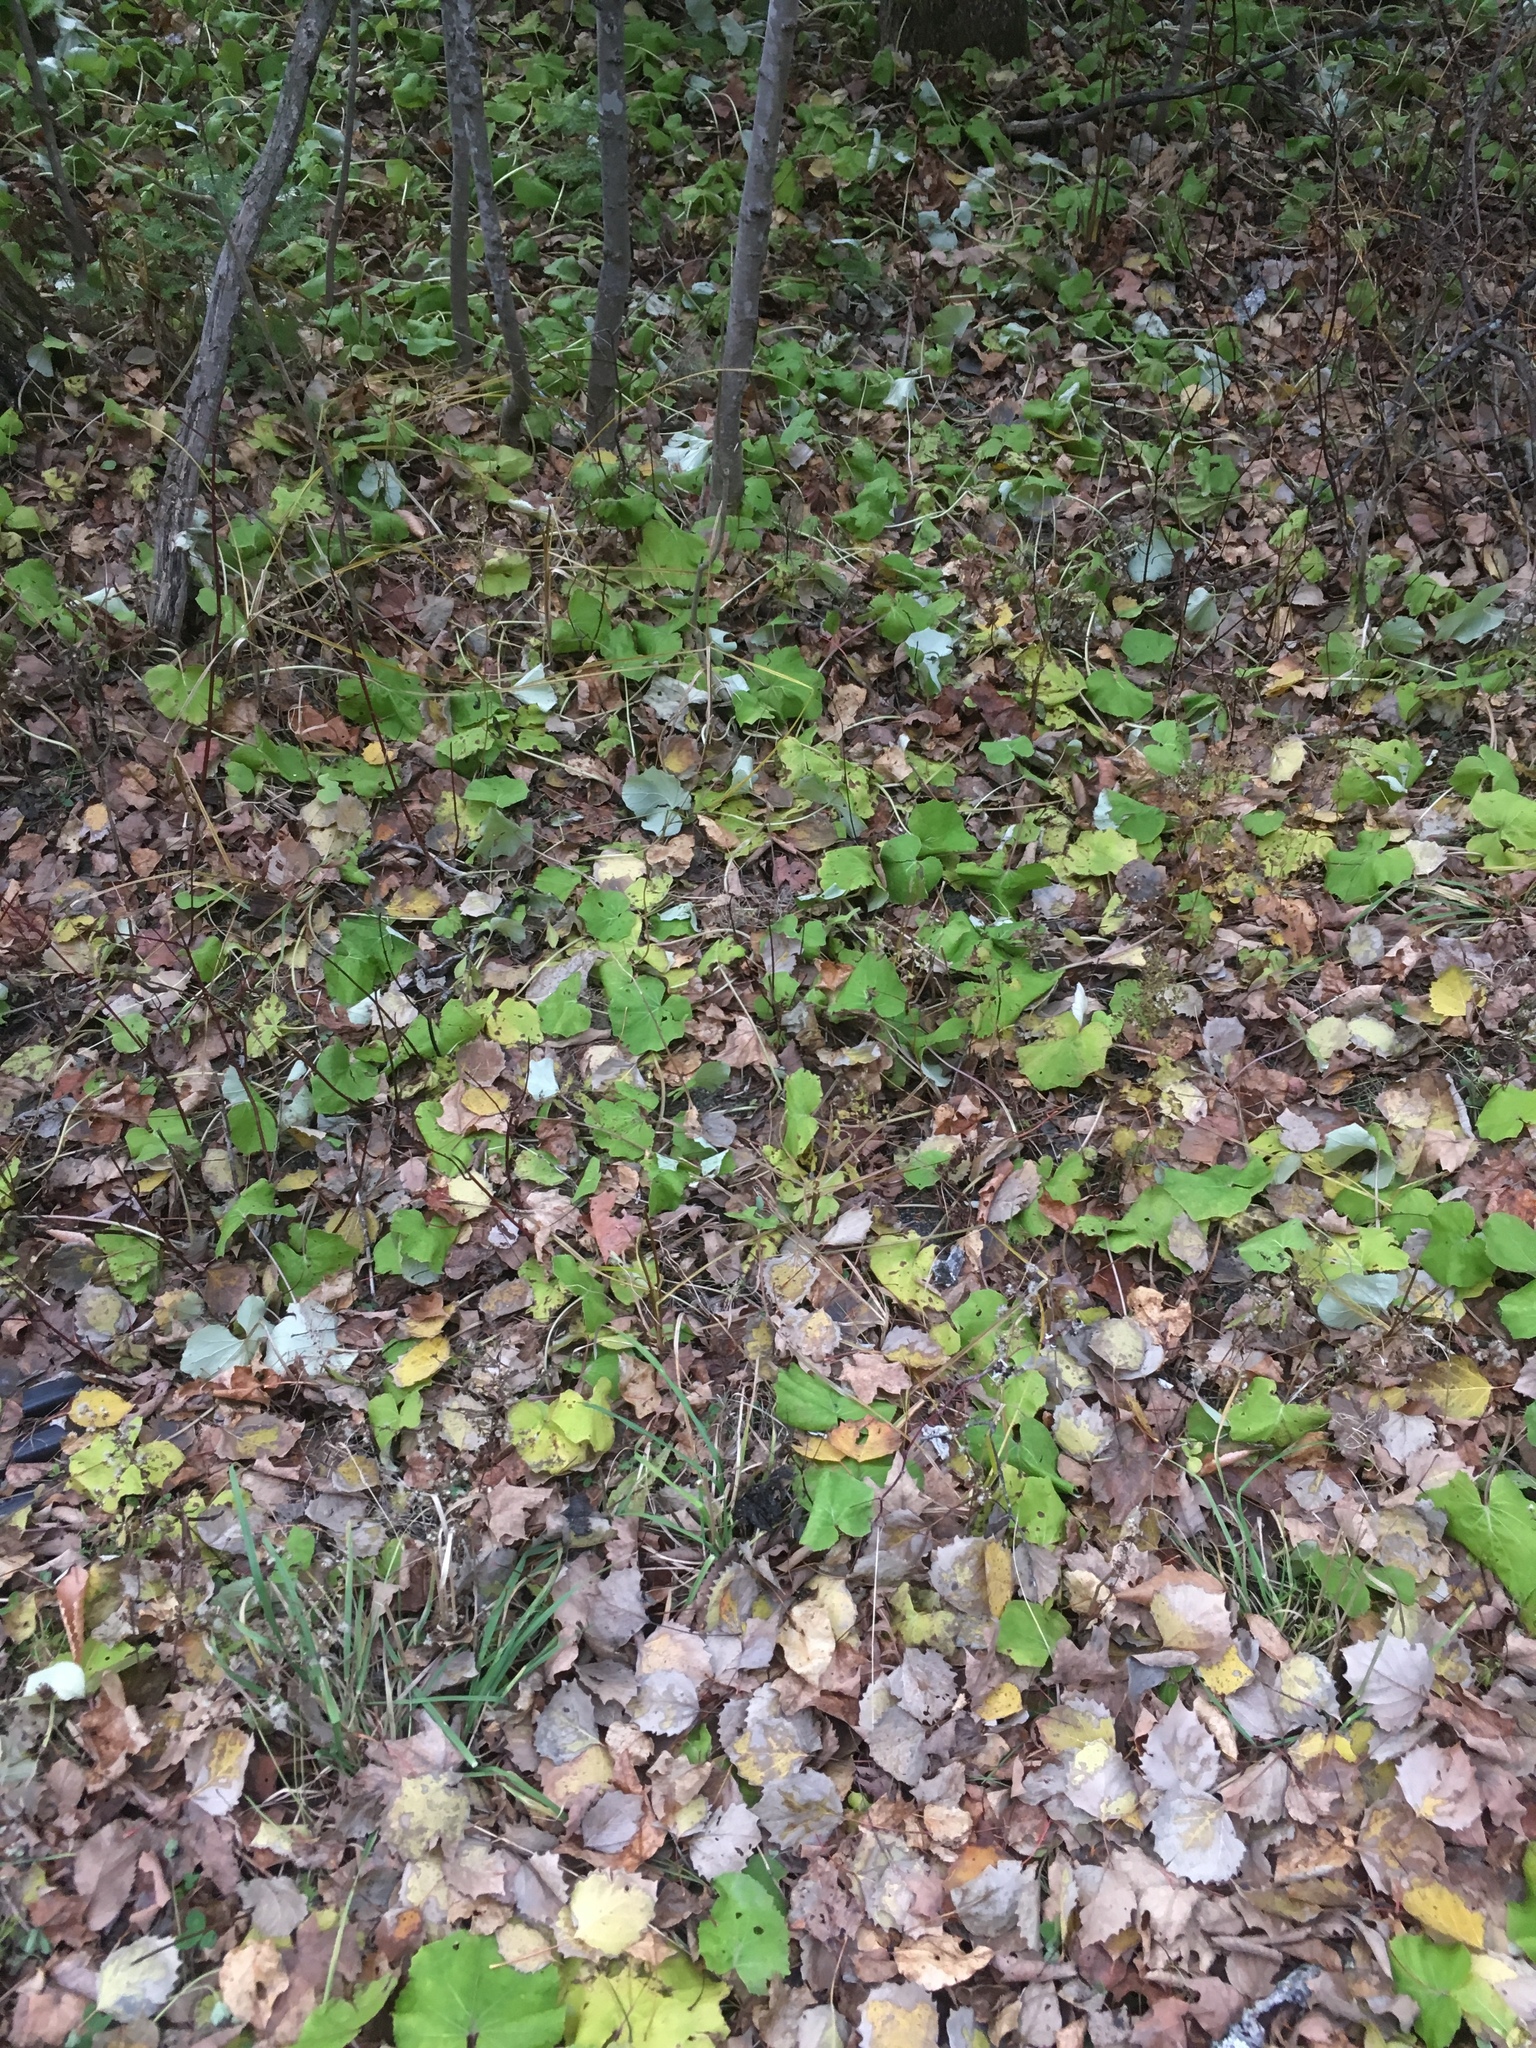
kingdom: Plantae
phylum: Tracheophyta
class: Magnoliopsida
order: Asterales
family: Asteraceae
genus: Tussilago
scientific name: Tussilago farfara
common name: Coltsfoot
